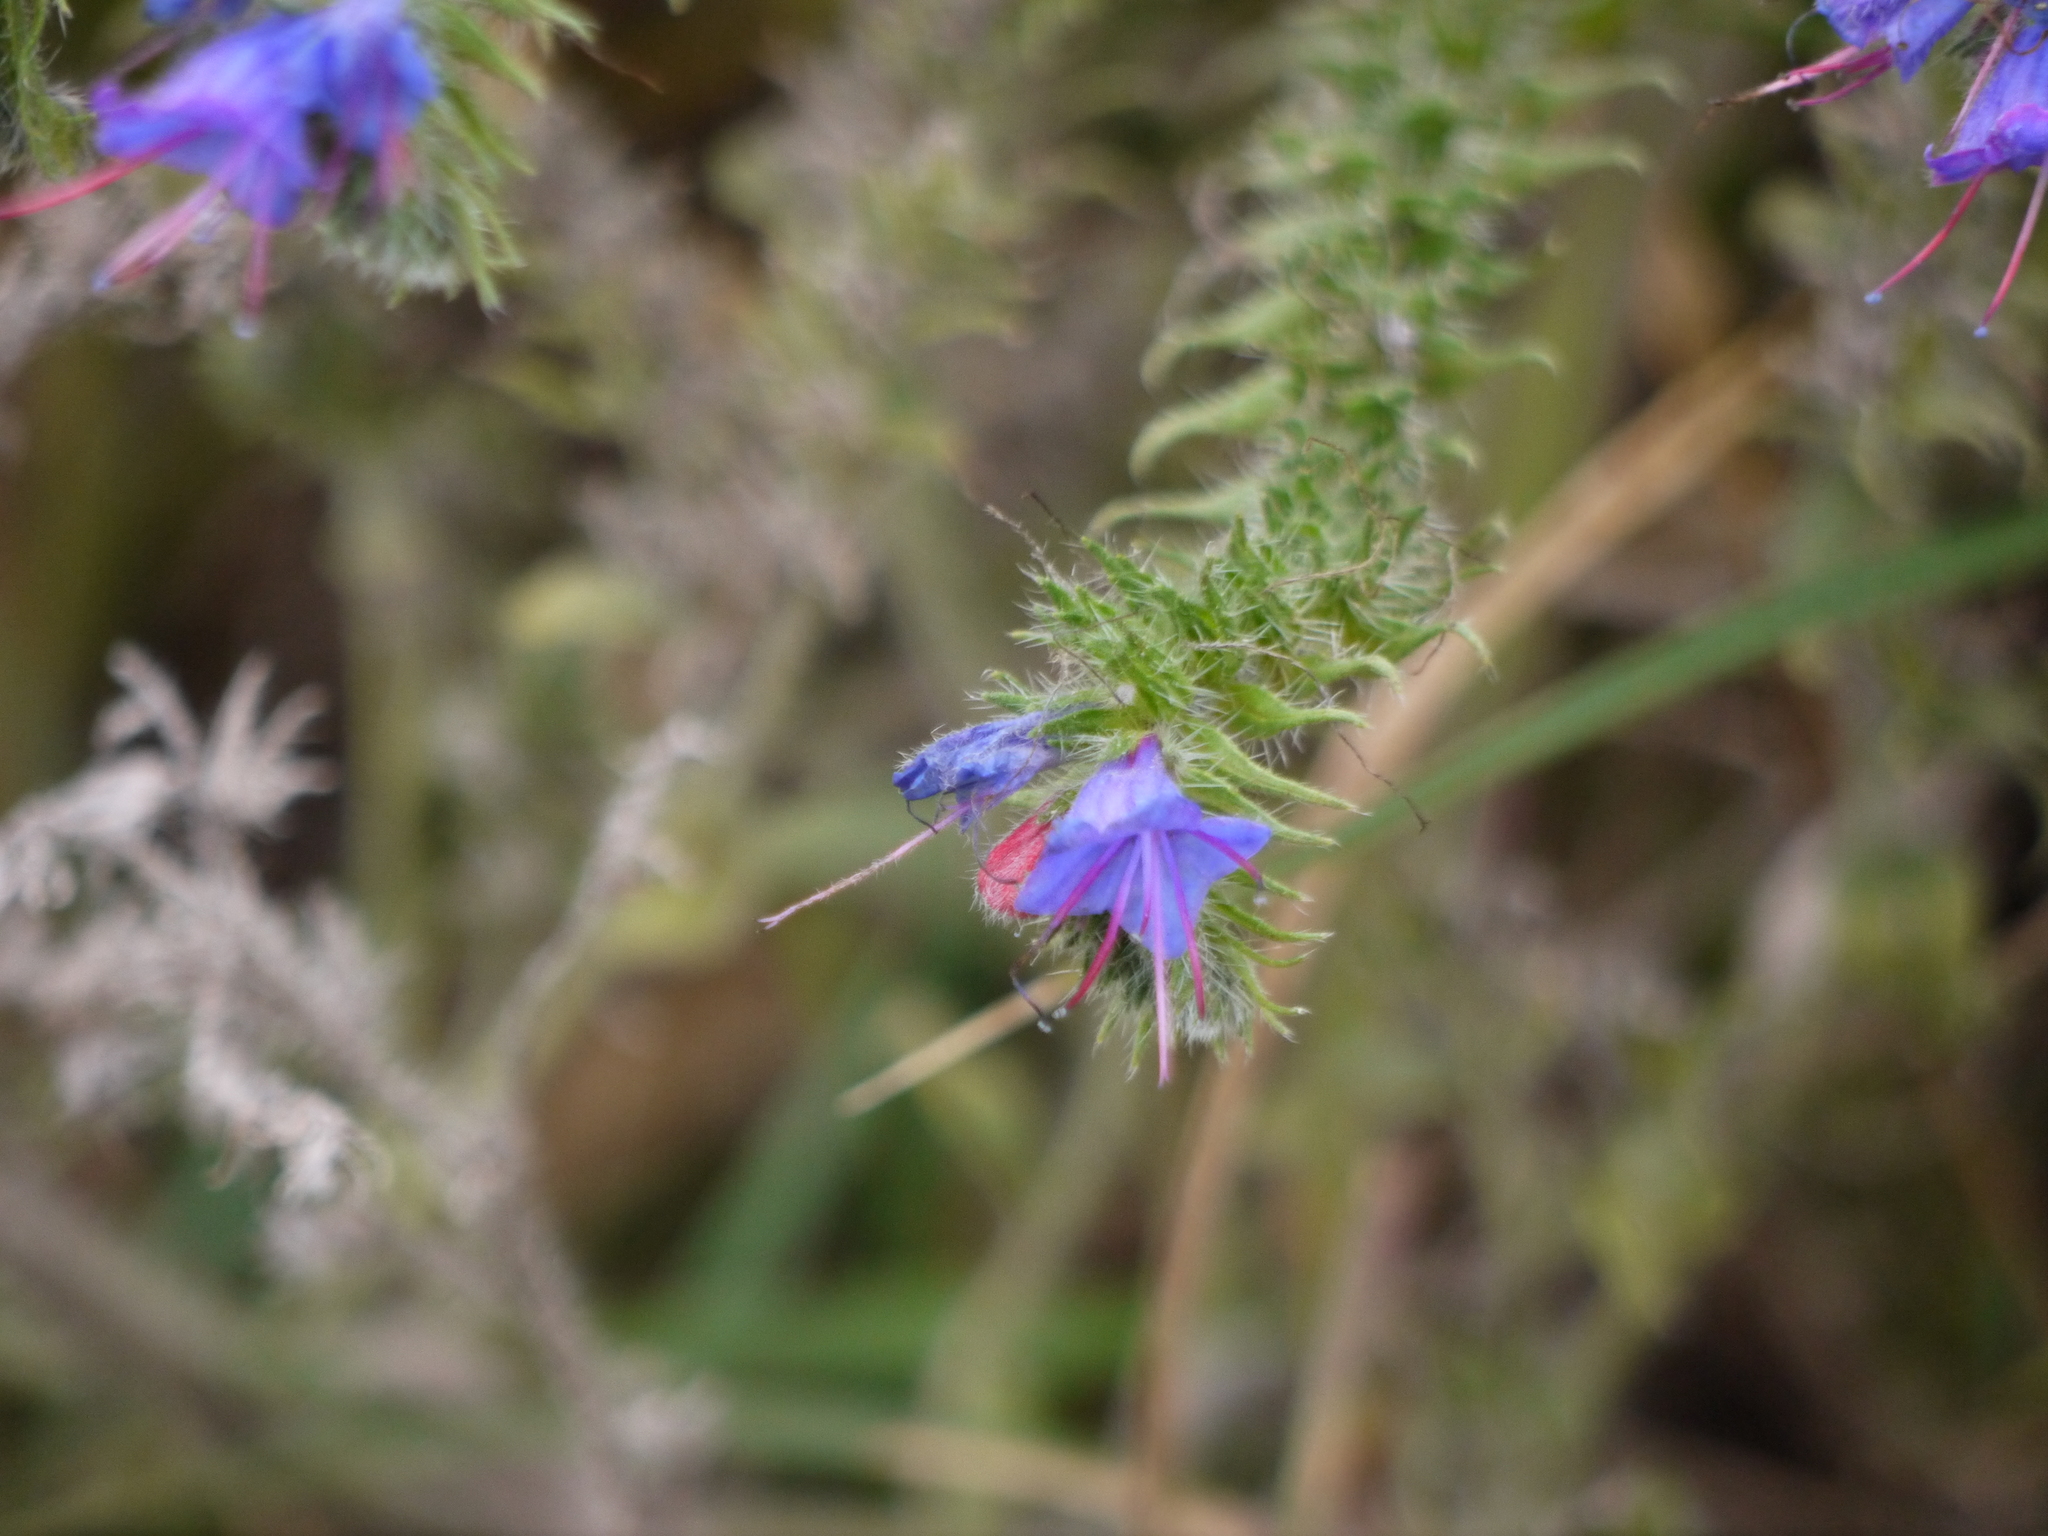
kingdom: Plantae
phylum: Tracheophyta
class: Magnoliopsida
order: Boraginales
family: Boraginaceae
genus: Echium
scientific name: Echium vulgare
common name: Common viper's bugloss
